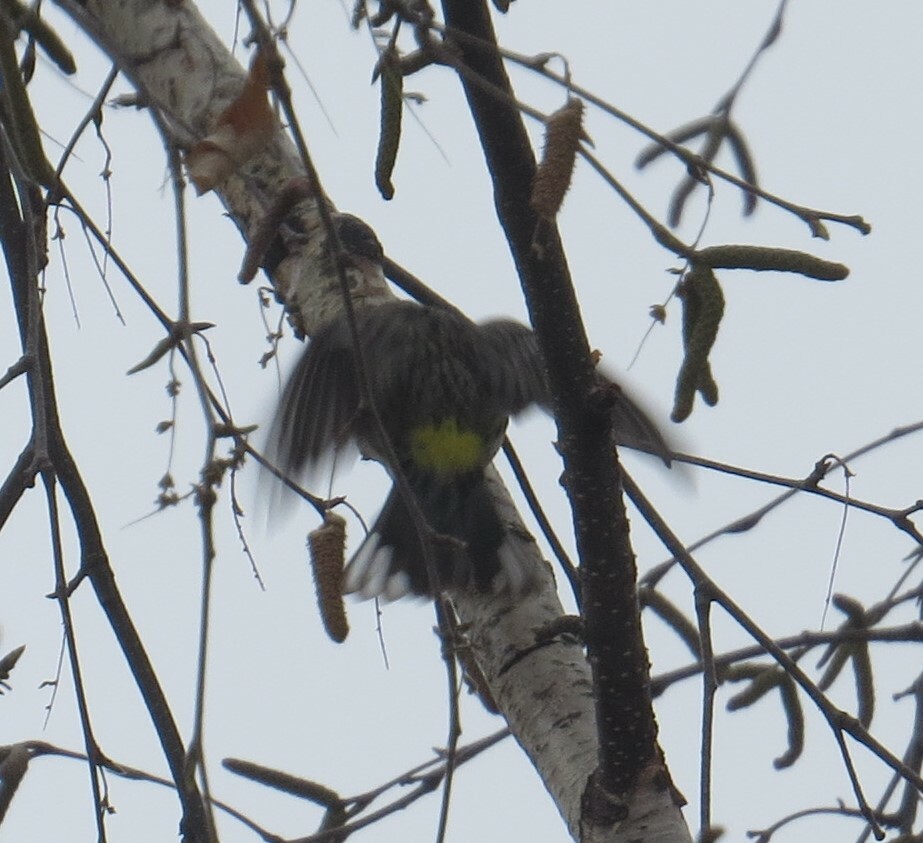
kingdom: Animalia
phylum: Chordata
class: Aves
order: Passeriformes
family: Parulidae
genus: Setophaga
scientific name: Setophaga coronata
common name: Myrtle warbler
